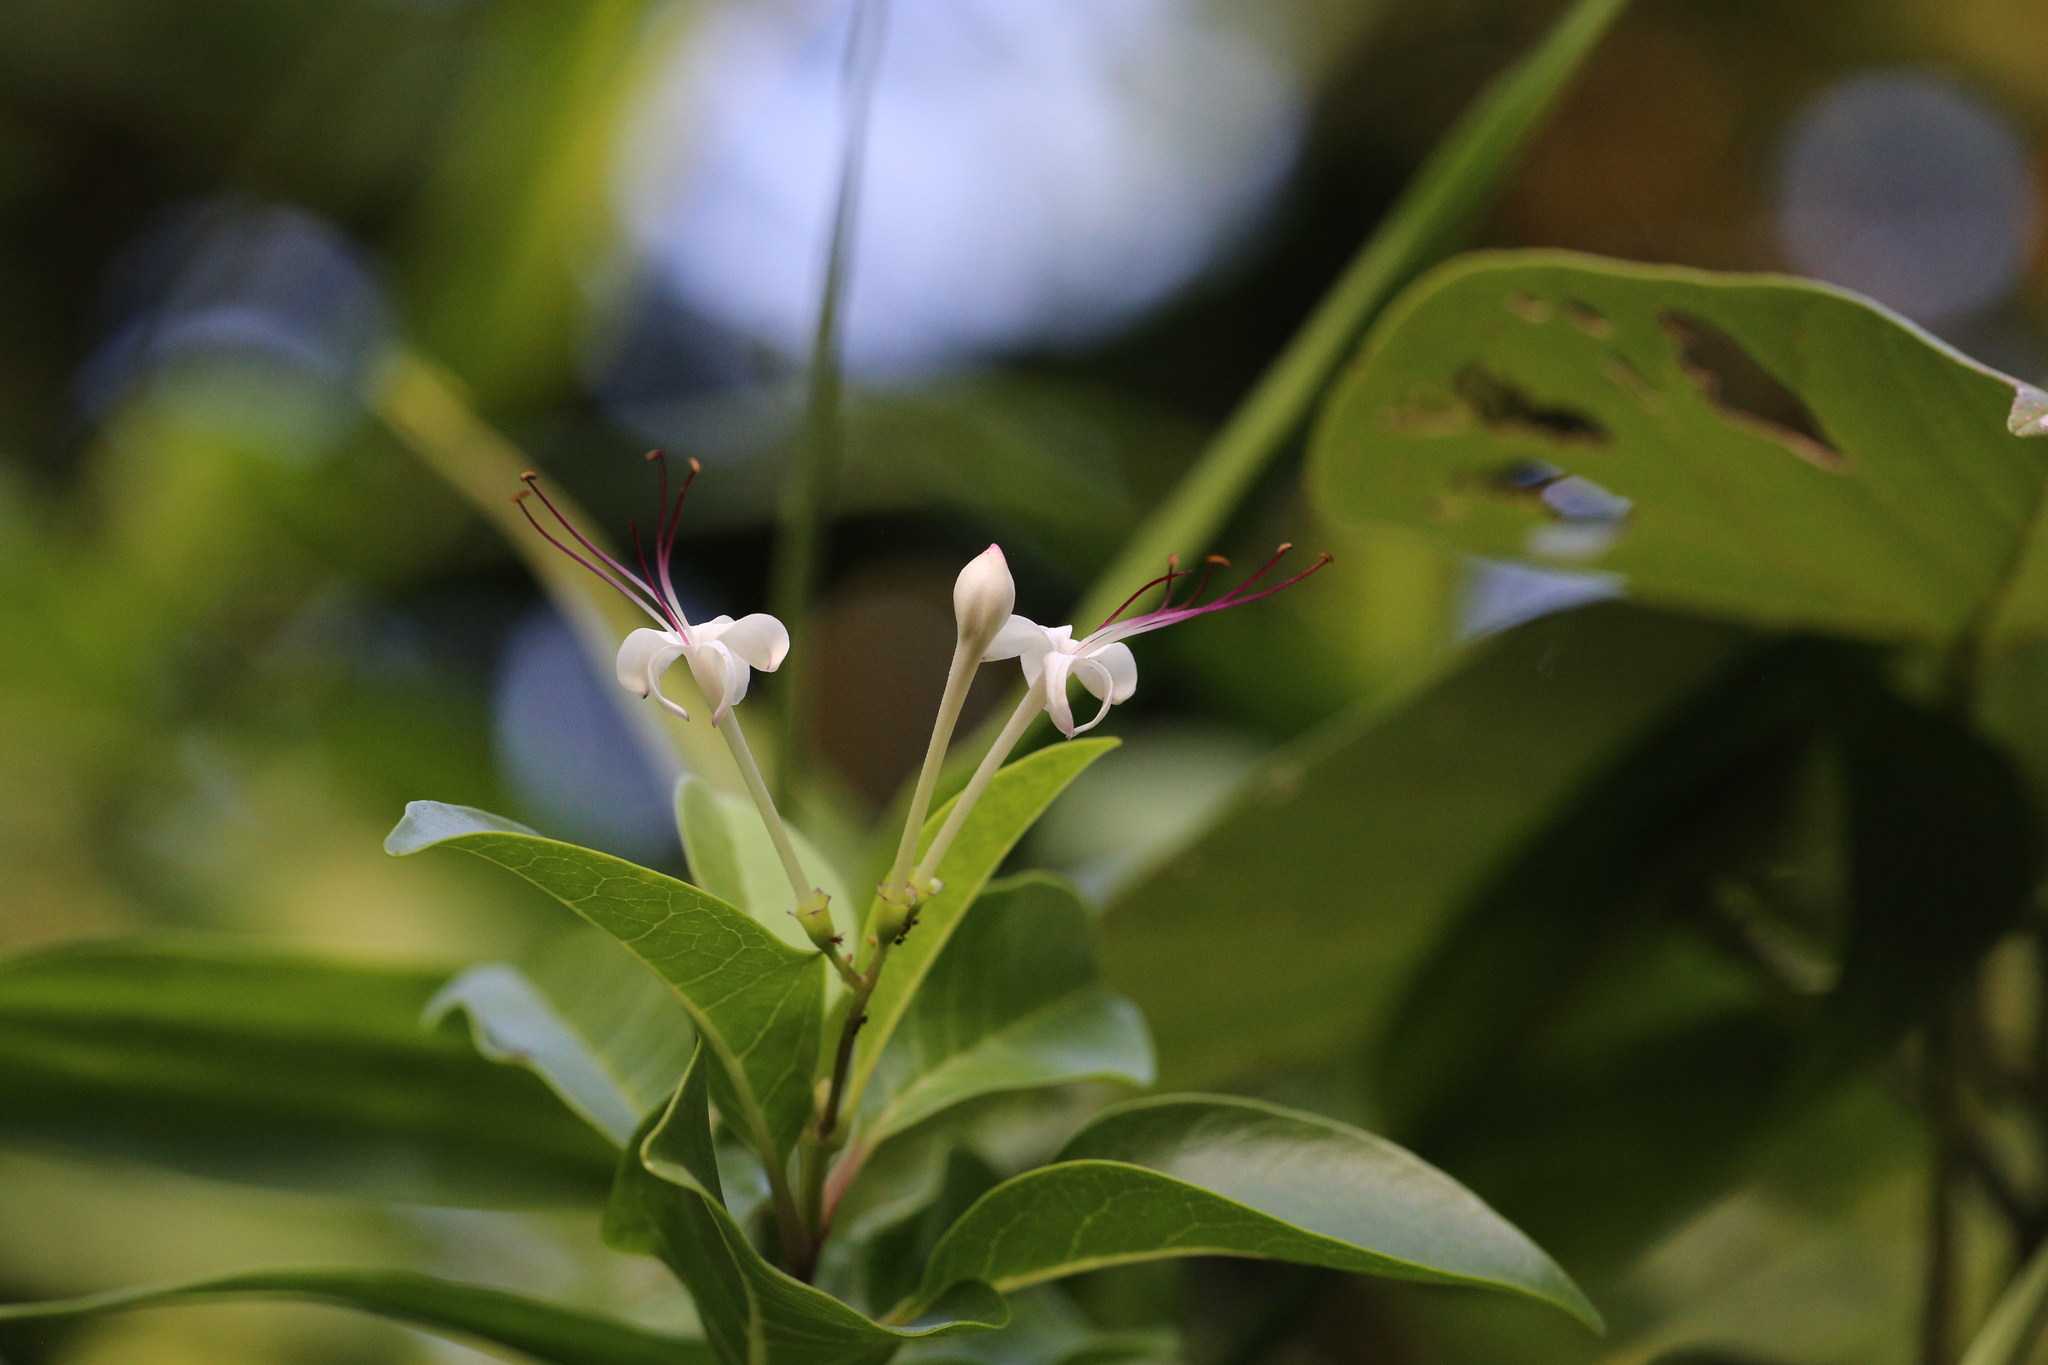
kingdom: Plantae
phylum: Tracheophyta
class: Magnoliopsida
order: Lamiales
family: Lamiaceae
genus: Volkameria
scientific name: Volkameria inermis
